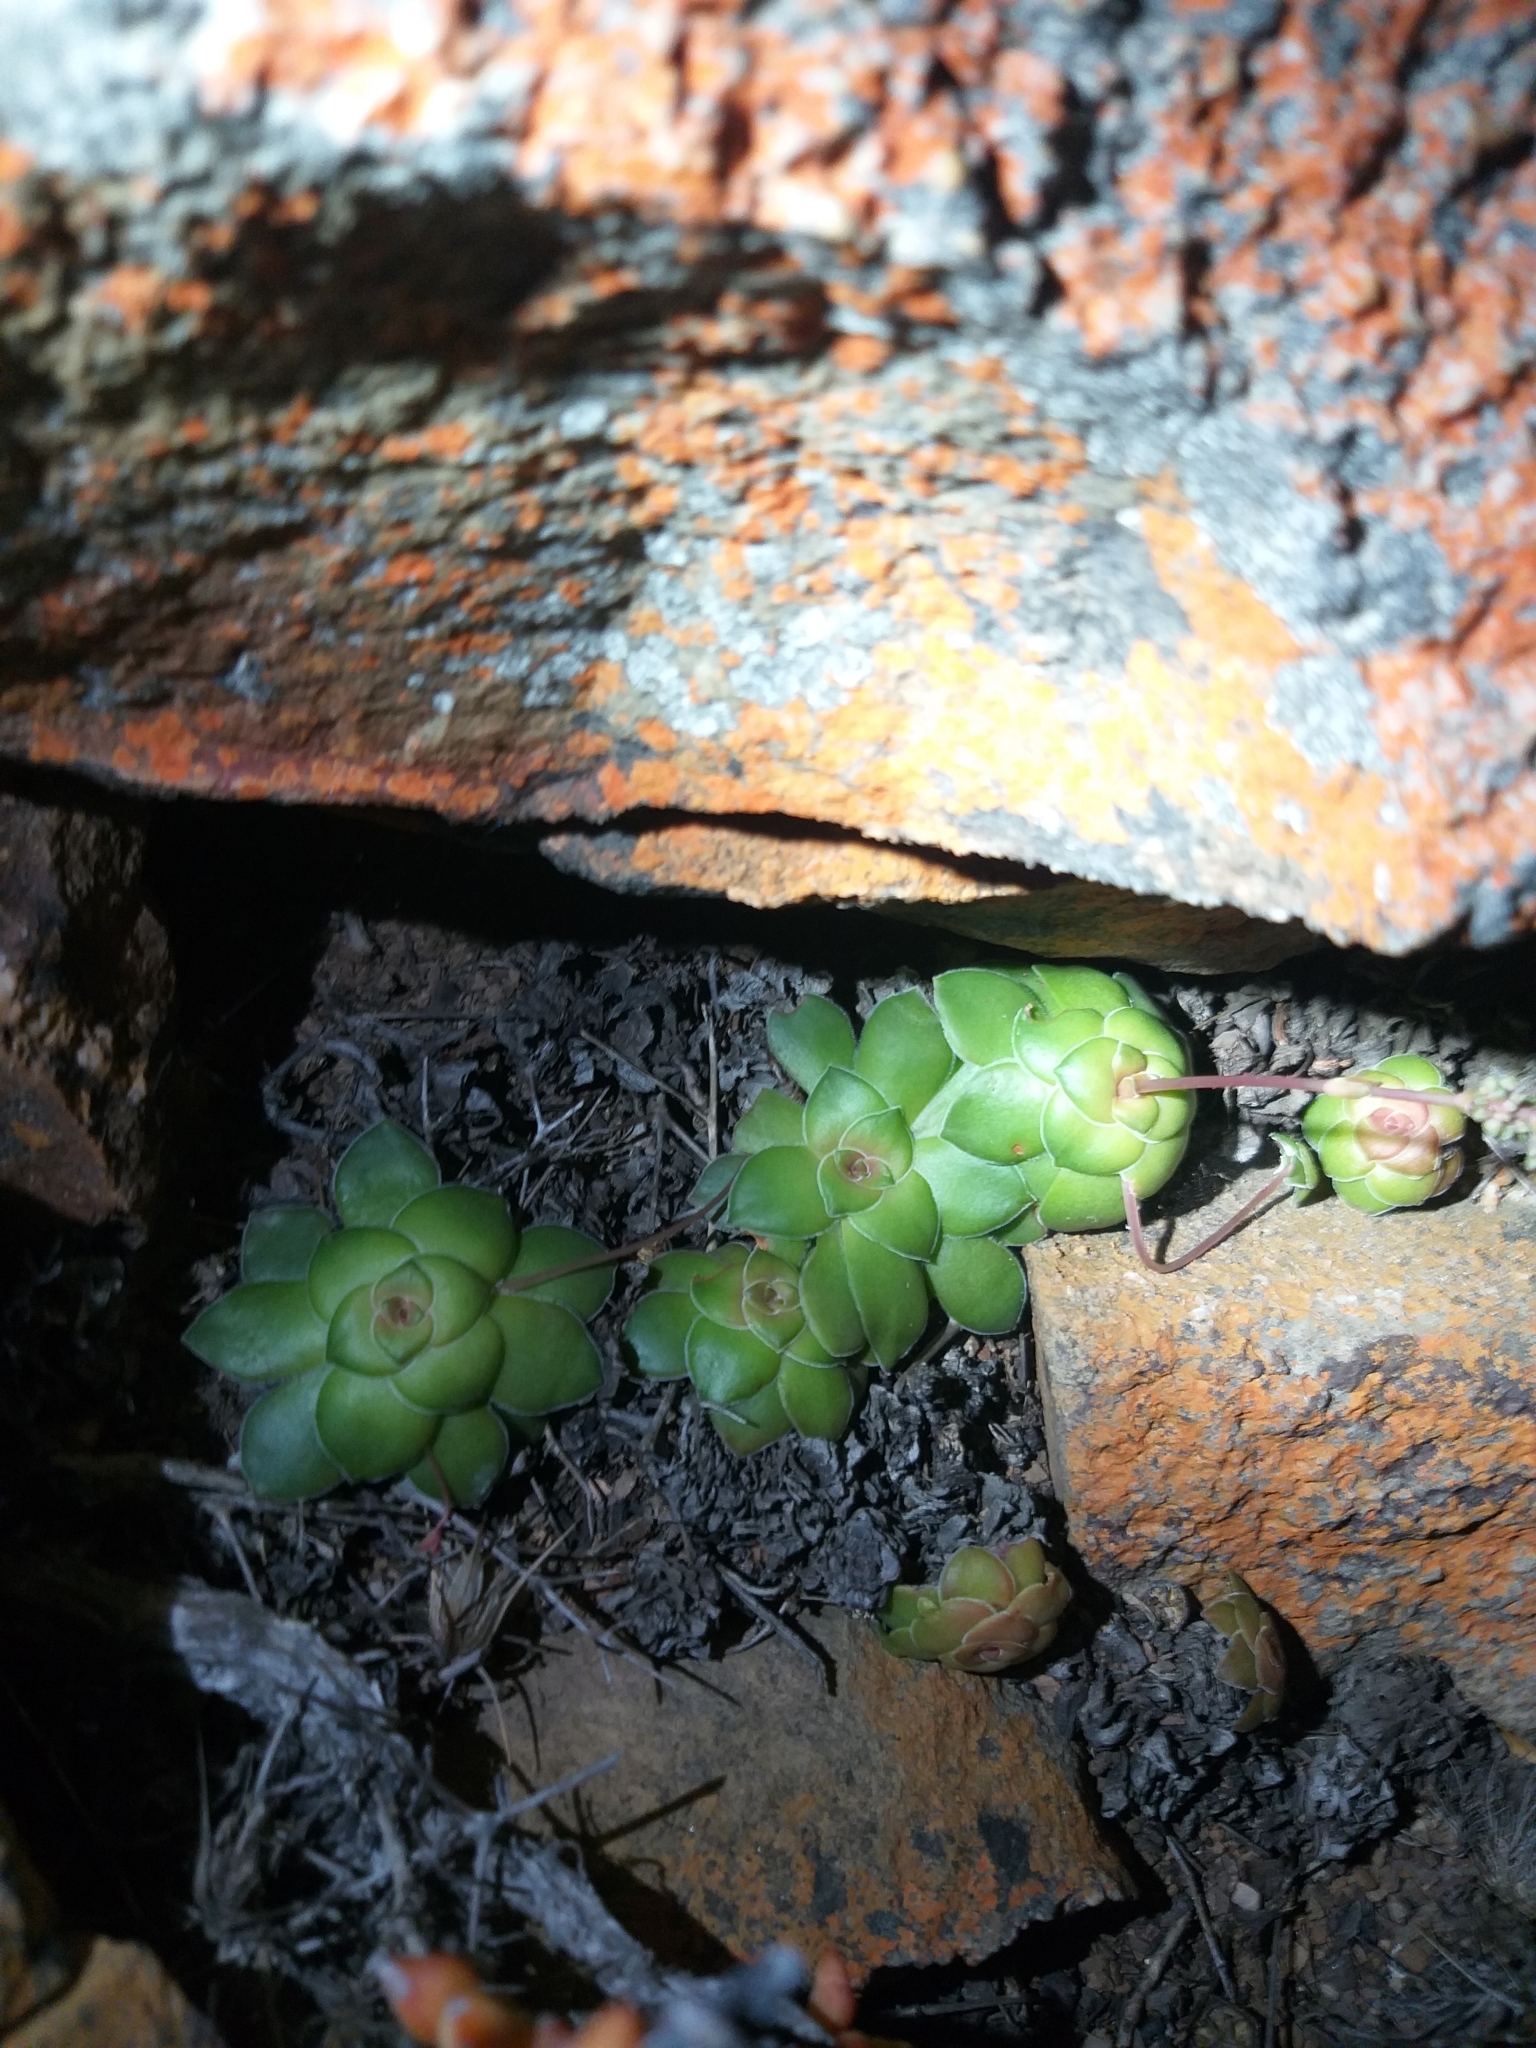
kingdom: Plantae
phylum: Tracheophyta
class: Magnoliopsida
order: Saxifragales
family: Crassulaceae
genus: Crassula
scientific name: Crassula orbicularis
